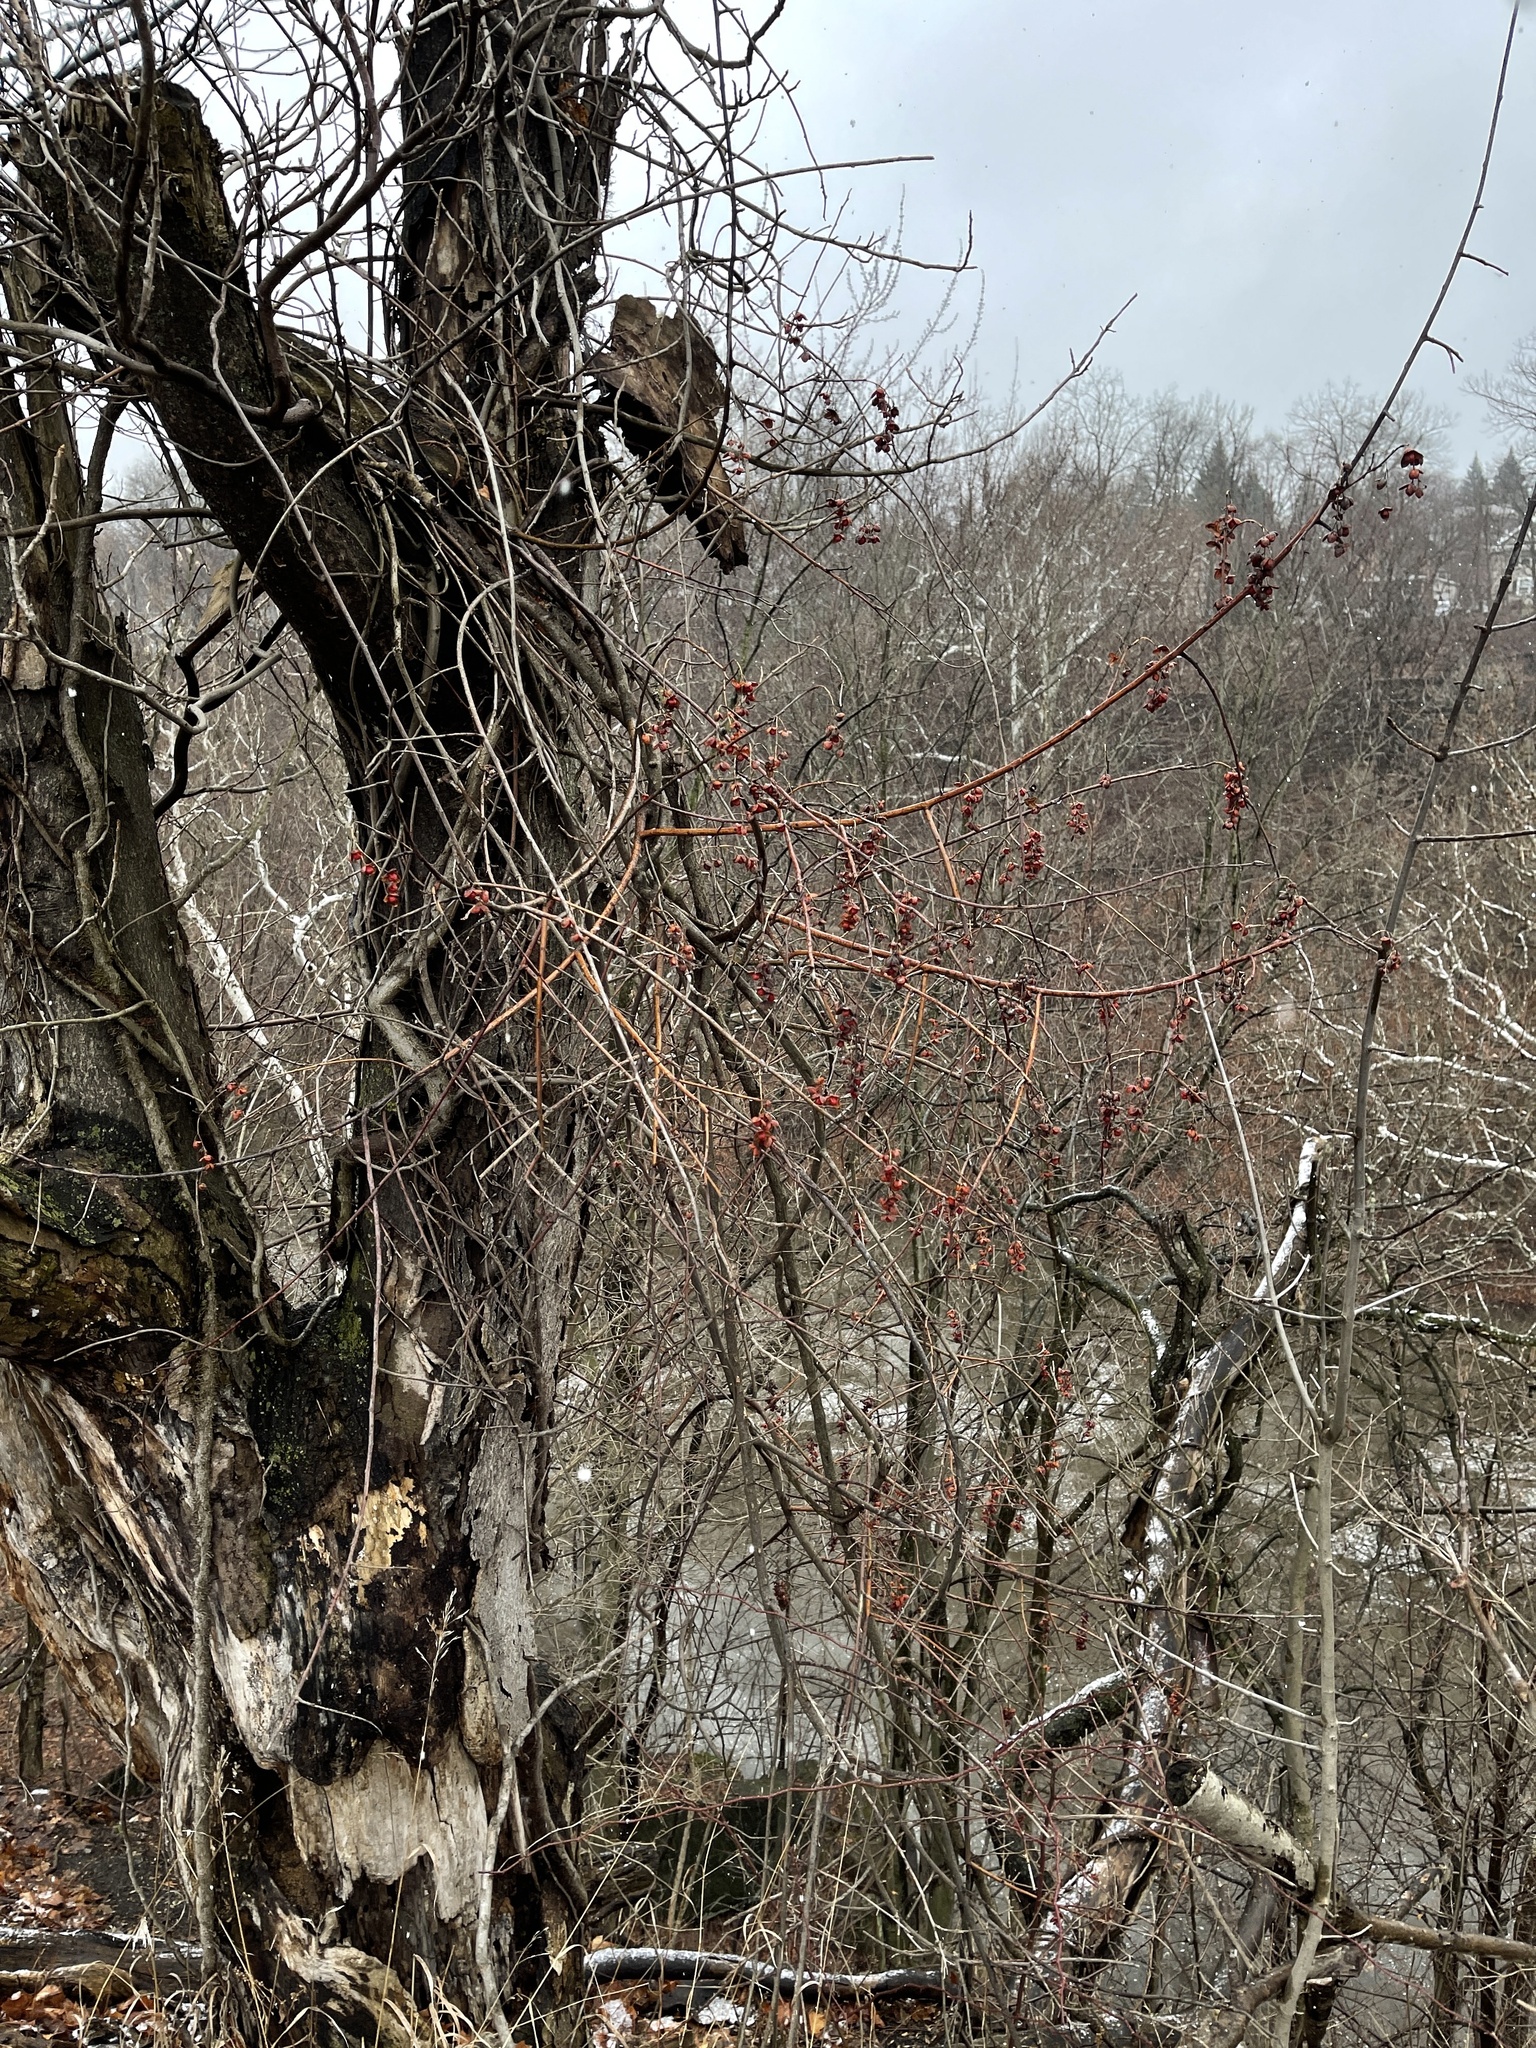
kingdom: Plantae
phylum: Tracheophyta
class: Magnoliopsida
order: Celastrales
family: Celastraceae
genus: Celastrus
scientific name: Celastrus scandens
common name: American bittersweet
